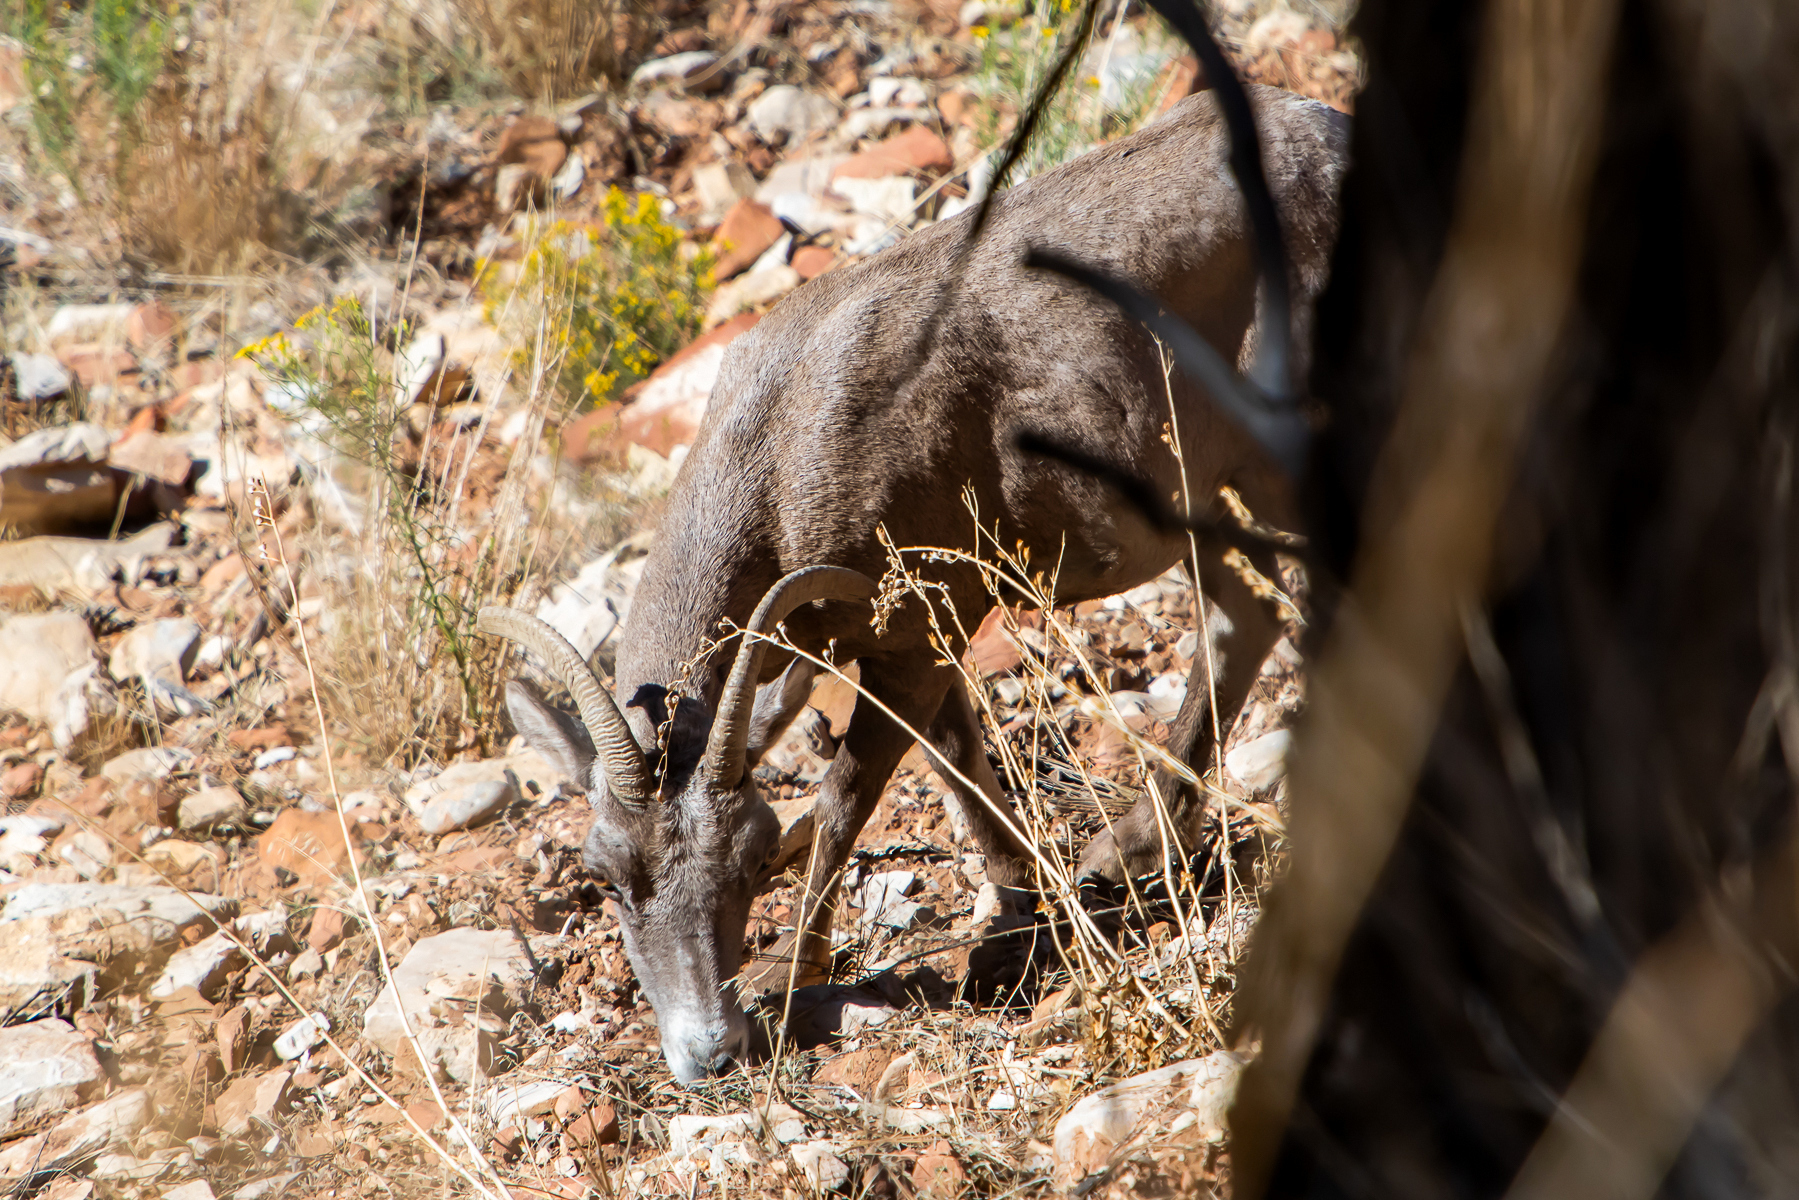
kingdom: Animalia
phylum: Chordata
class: Mammalia
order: Artiodactyla
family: Bovidae
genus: Ovis
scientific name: Ovis canadensis
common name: Bighorn sheep
